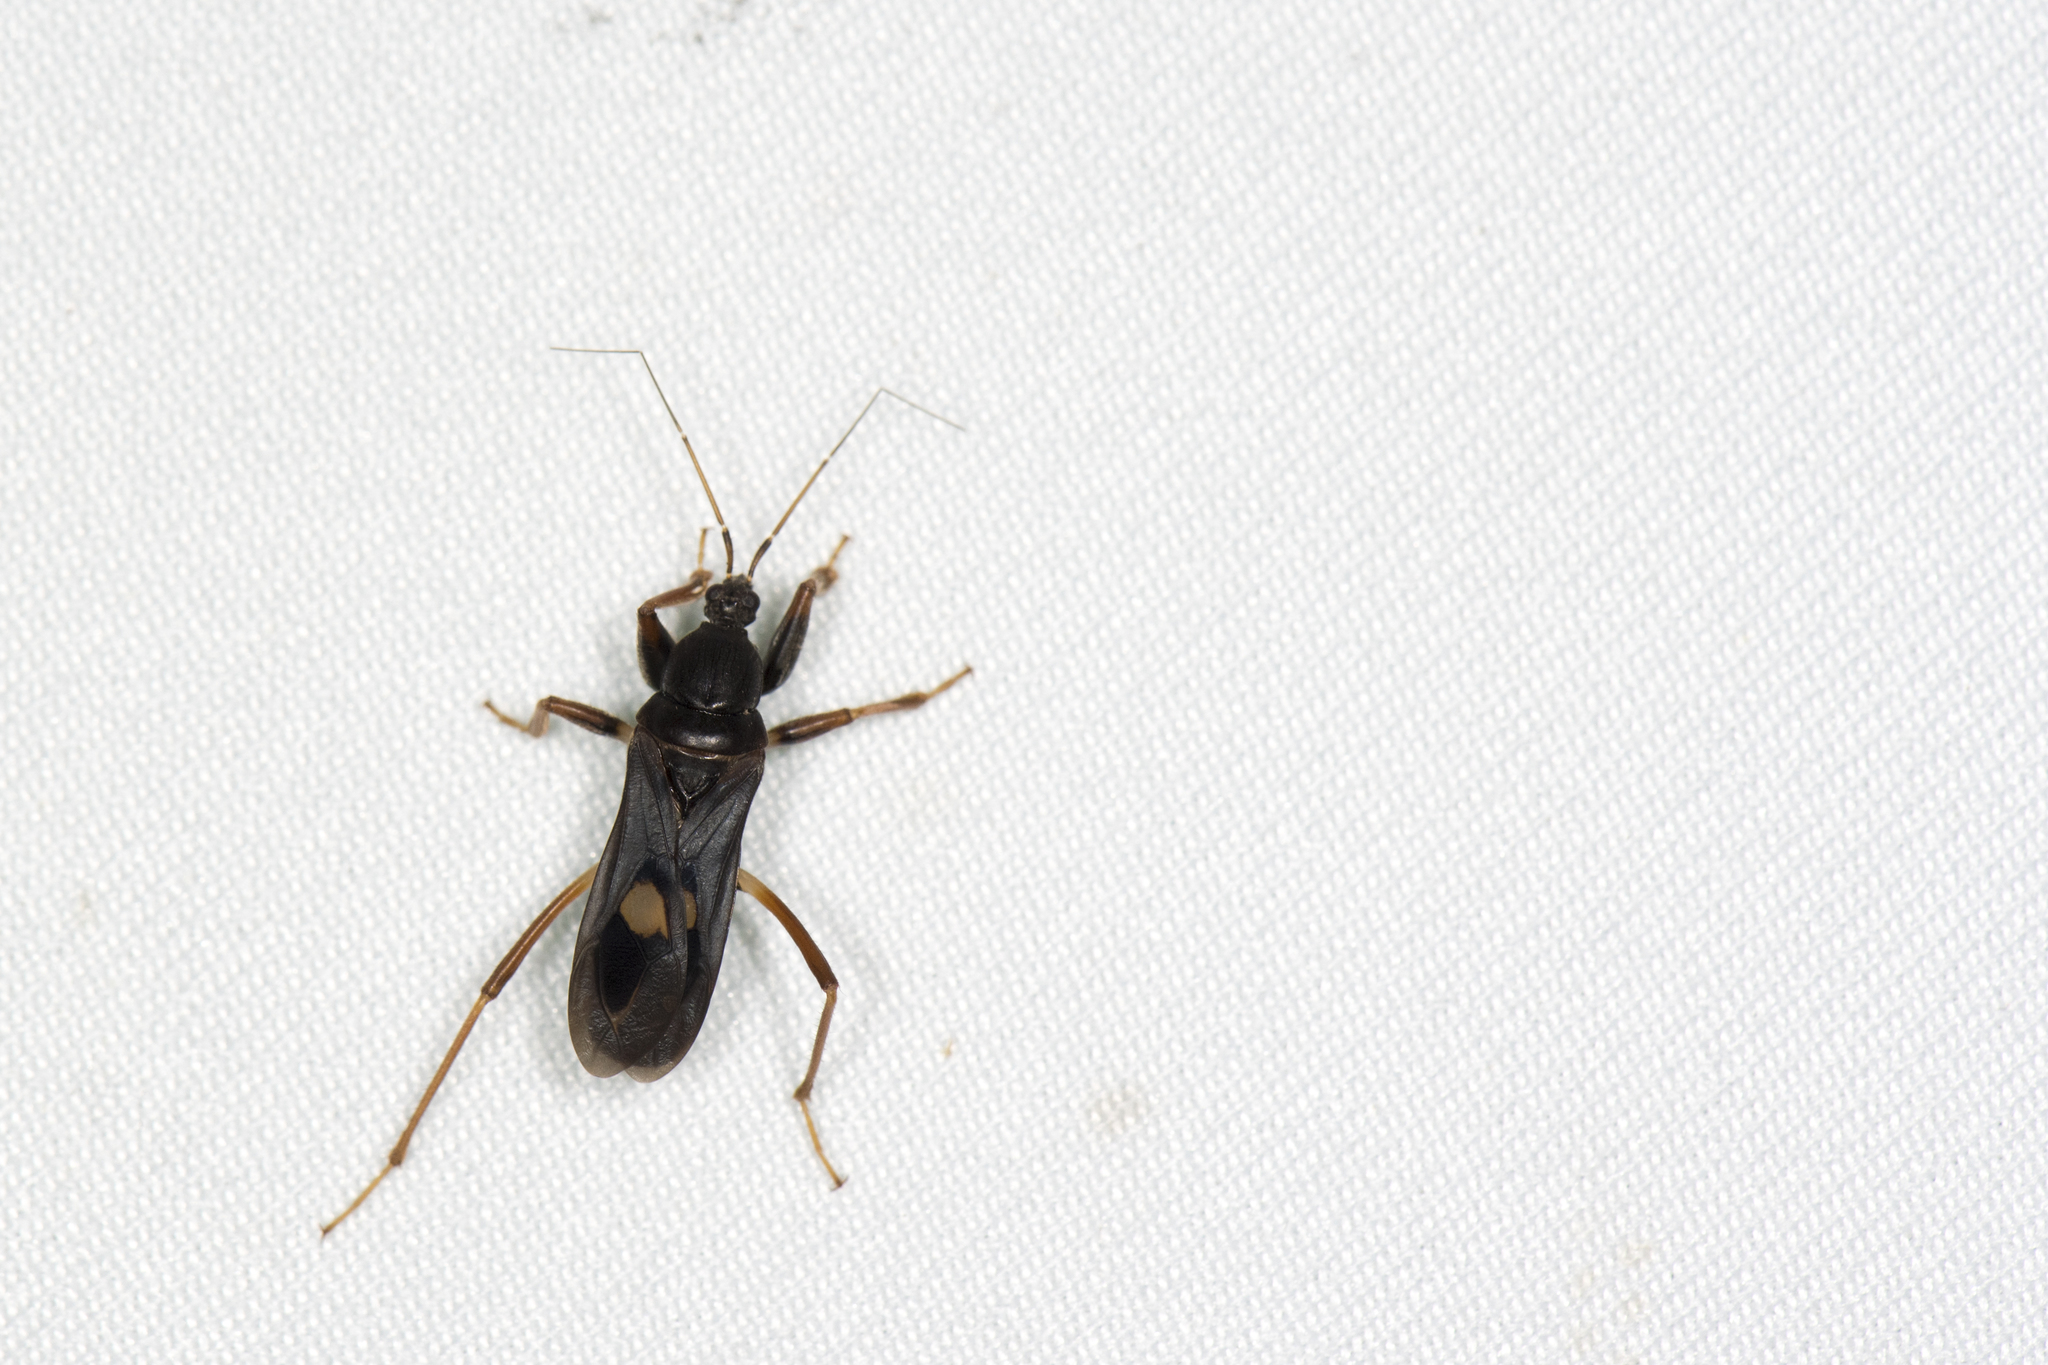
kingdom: Animalia
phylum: Arthropoda
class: Insecta
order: Hemiptera
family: Reduviidae
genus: Ectomocoris
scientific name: Ectomocoris atrox
